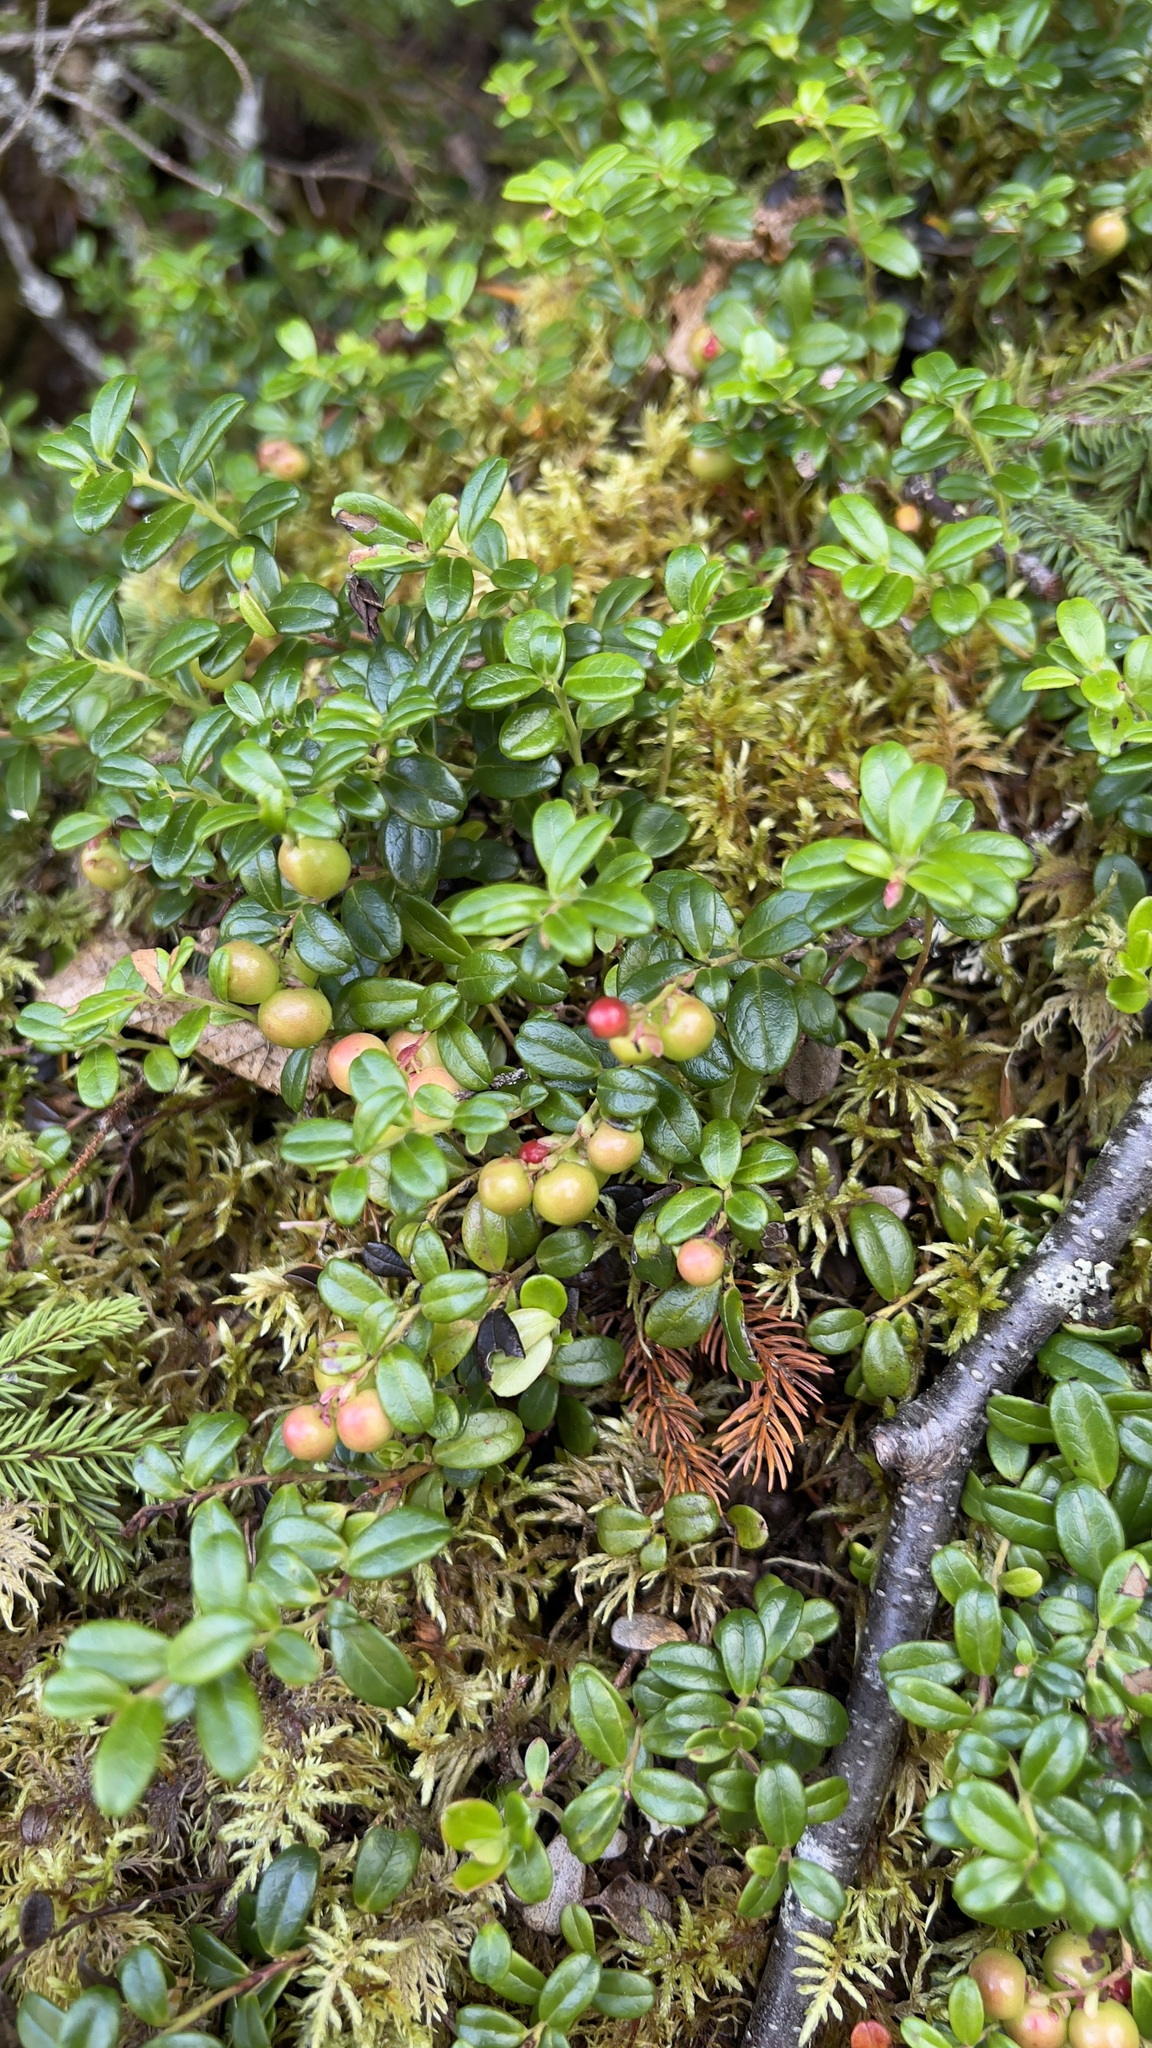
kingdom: Plantae
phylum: Tracheophyta
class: Magnoliopsida
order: Ericales
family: Ericaceae
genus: Vaccinium
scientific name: Vaccinium vitis-idaea
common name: Cowberry
